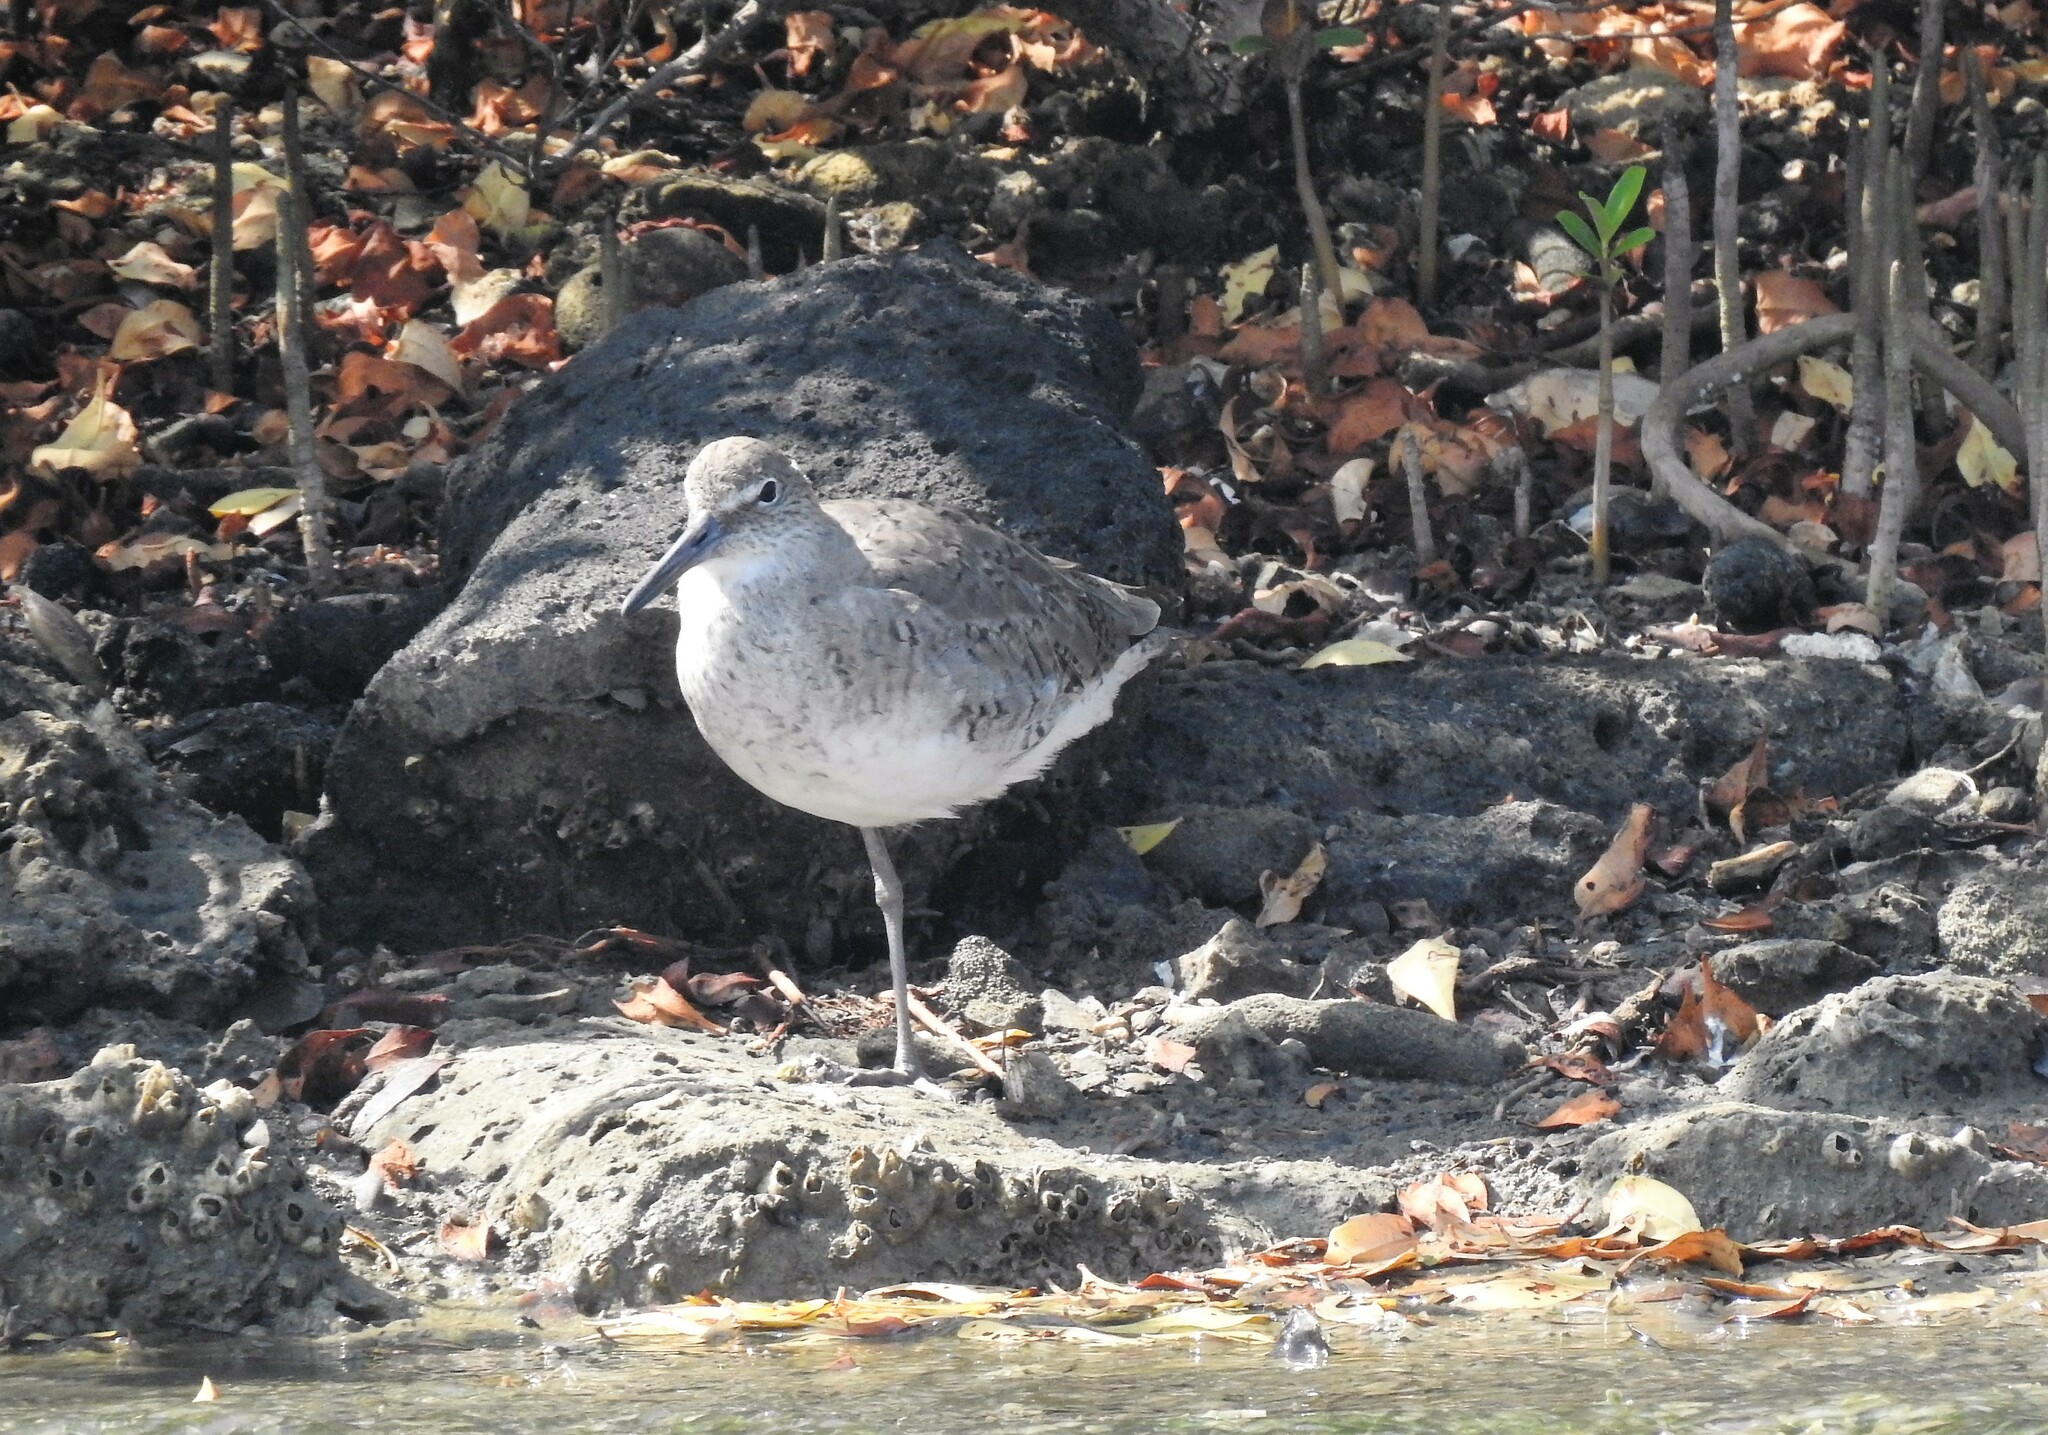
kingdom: Animalia
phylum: Chordata
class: Aves
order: Charadriiformes
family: Scolopacidae
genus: Tringa
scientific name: Tringa semipalmata
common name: Willet
